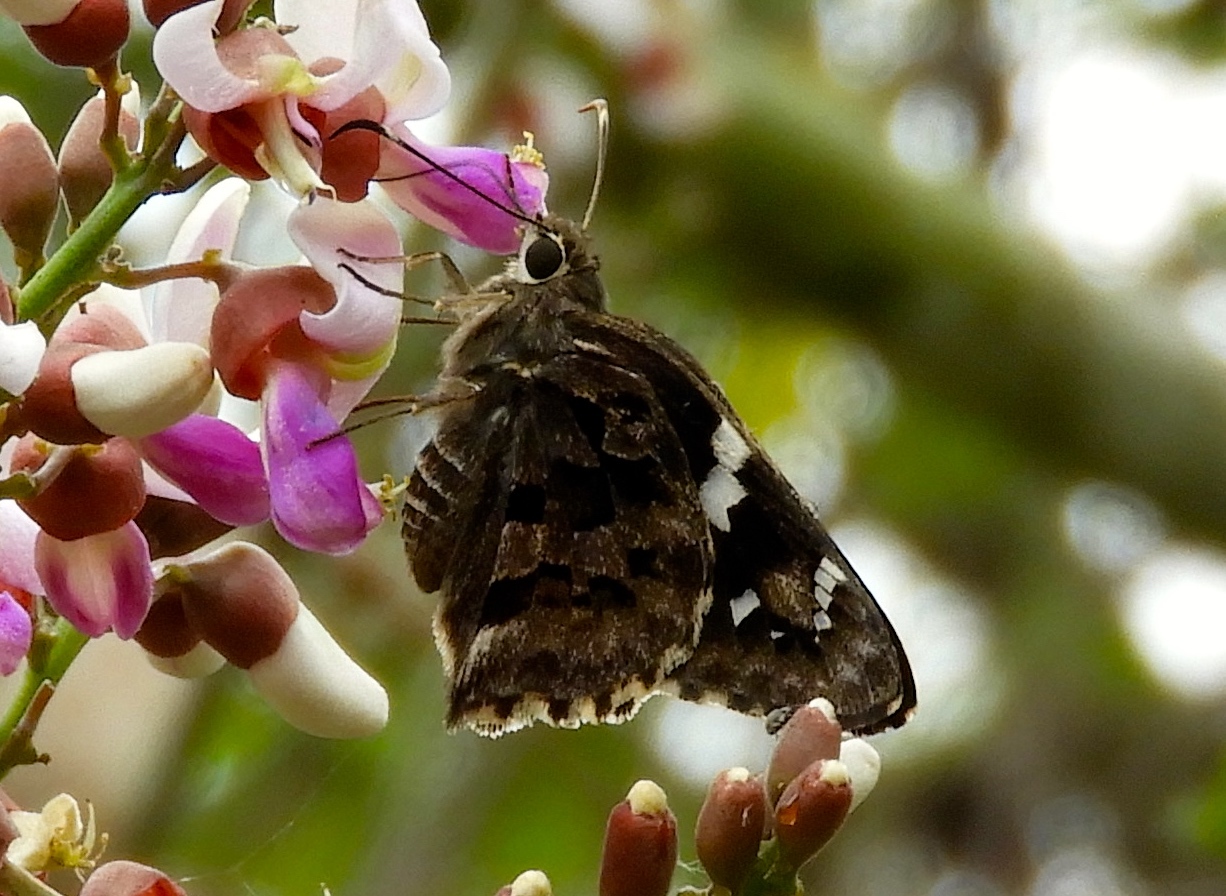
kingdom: Animalia
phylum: Arthropoda
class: Insecta
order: Lepidoptera
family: Hesperiidae
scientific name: Hesperiidae
